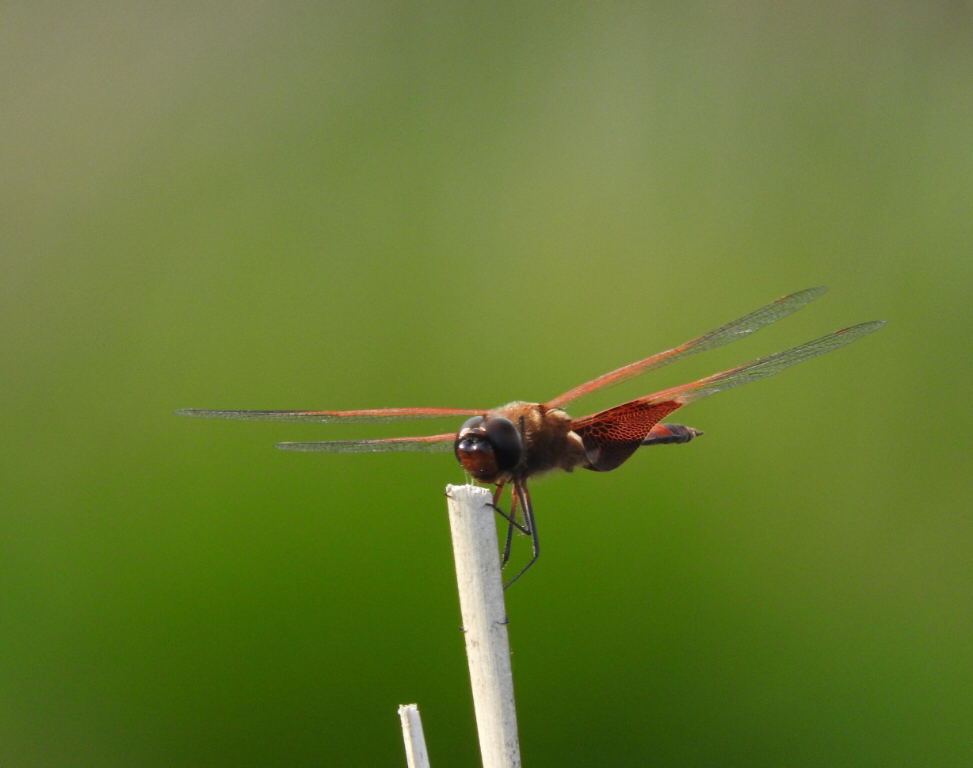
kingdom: Animalia
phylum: Arthropoda
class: Insecta
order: Odonata
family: Libellulidae
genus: Tramea
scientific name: Tramea carolina
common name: Carolina saddlebags
